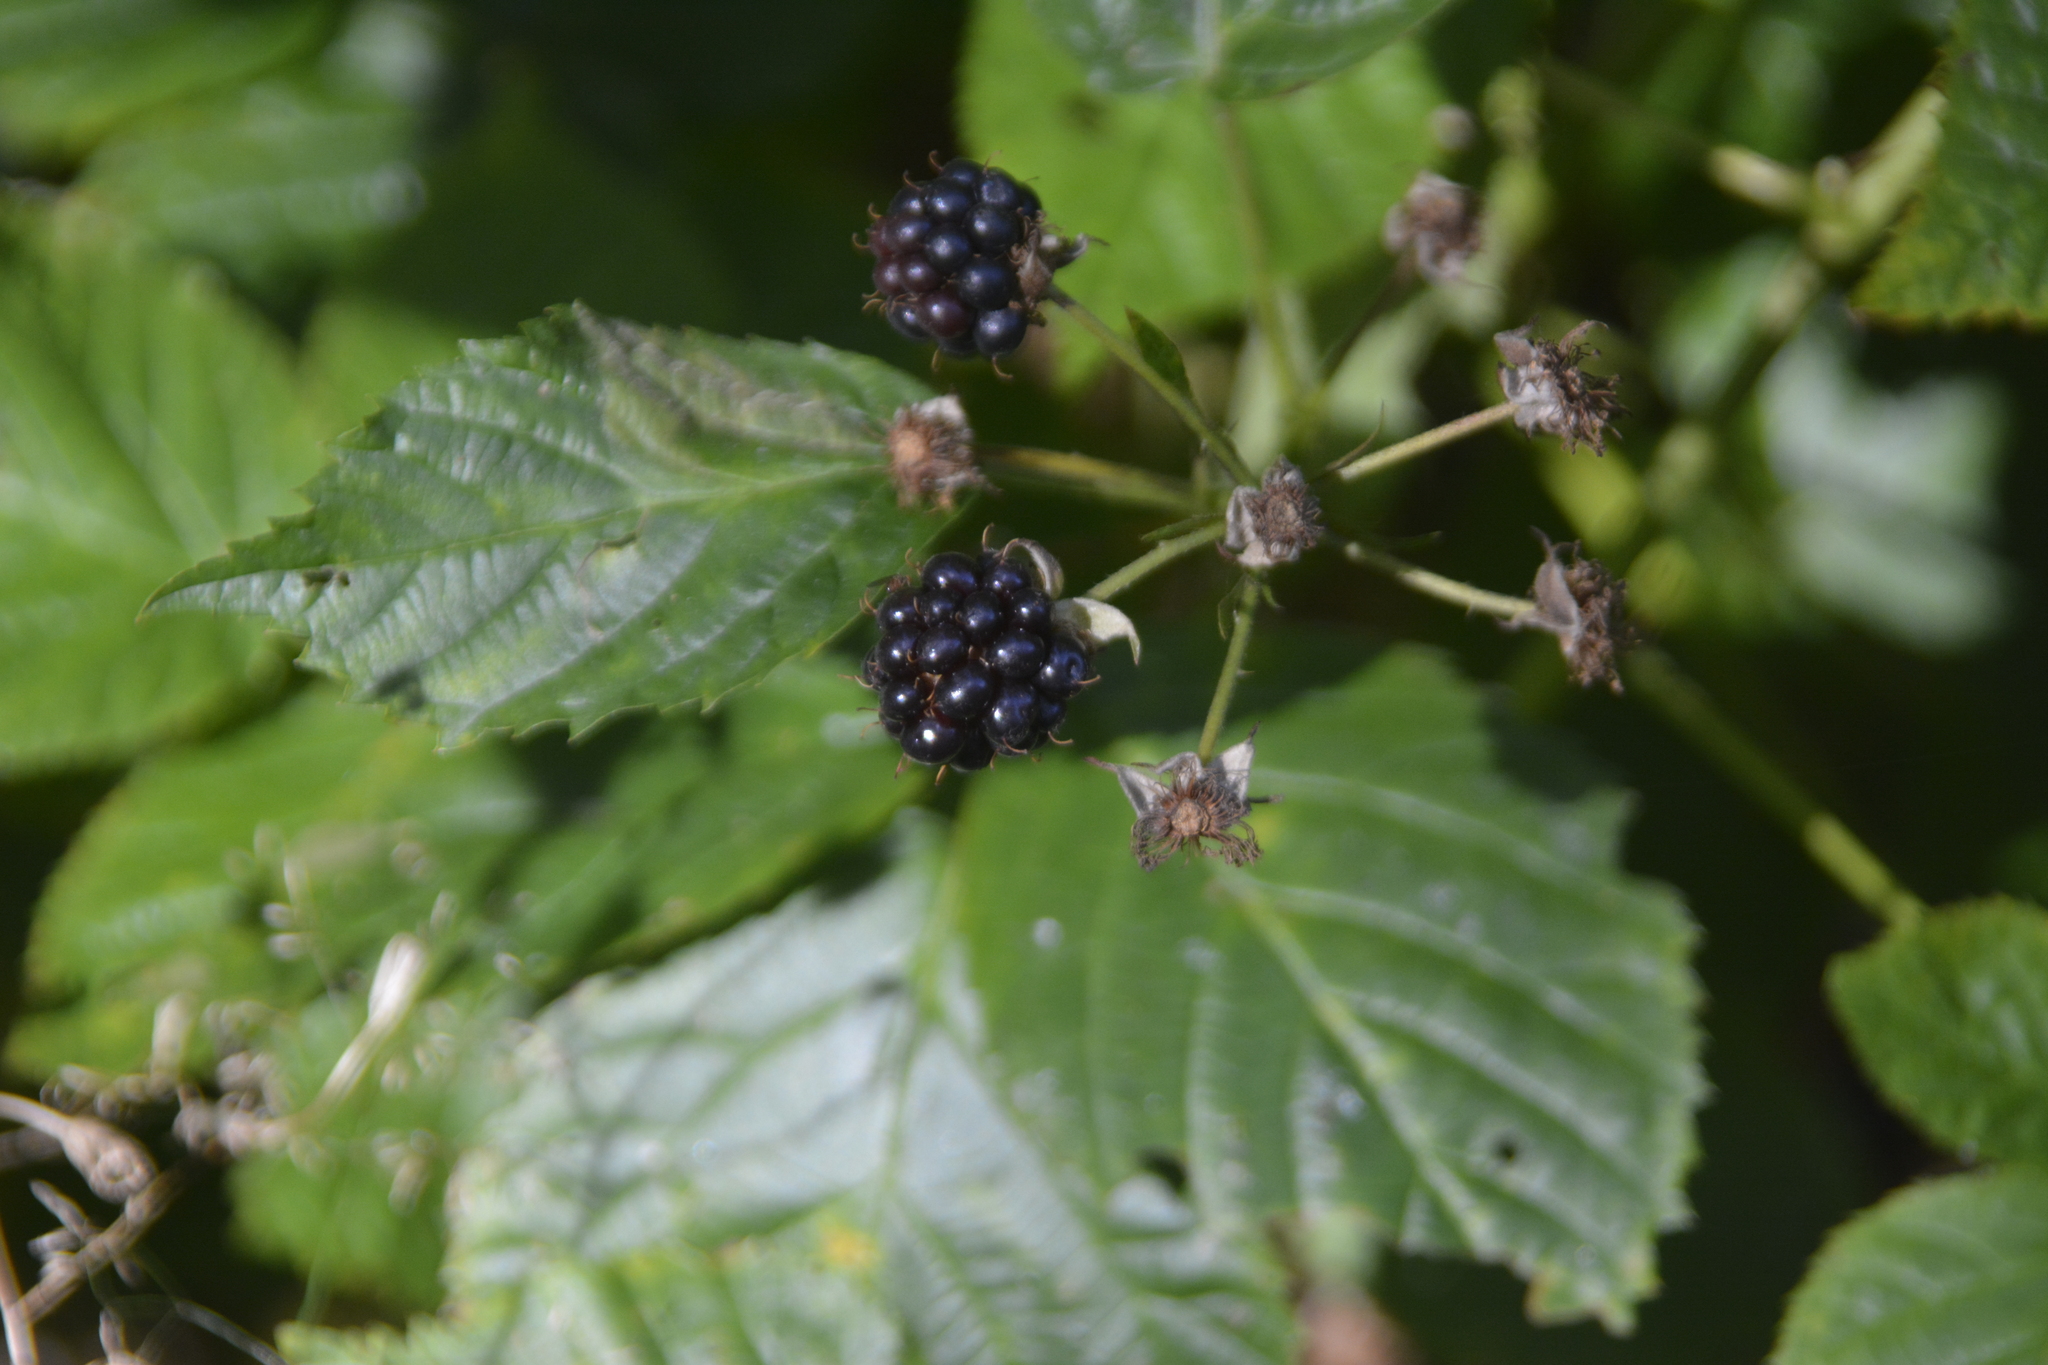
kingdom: Plantae
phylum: Tracheophyta
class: Magnoliopsida
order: Rosales
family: Rosaceae
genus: Rubus
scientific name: Rubus polonicus
